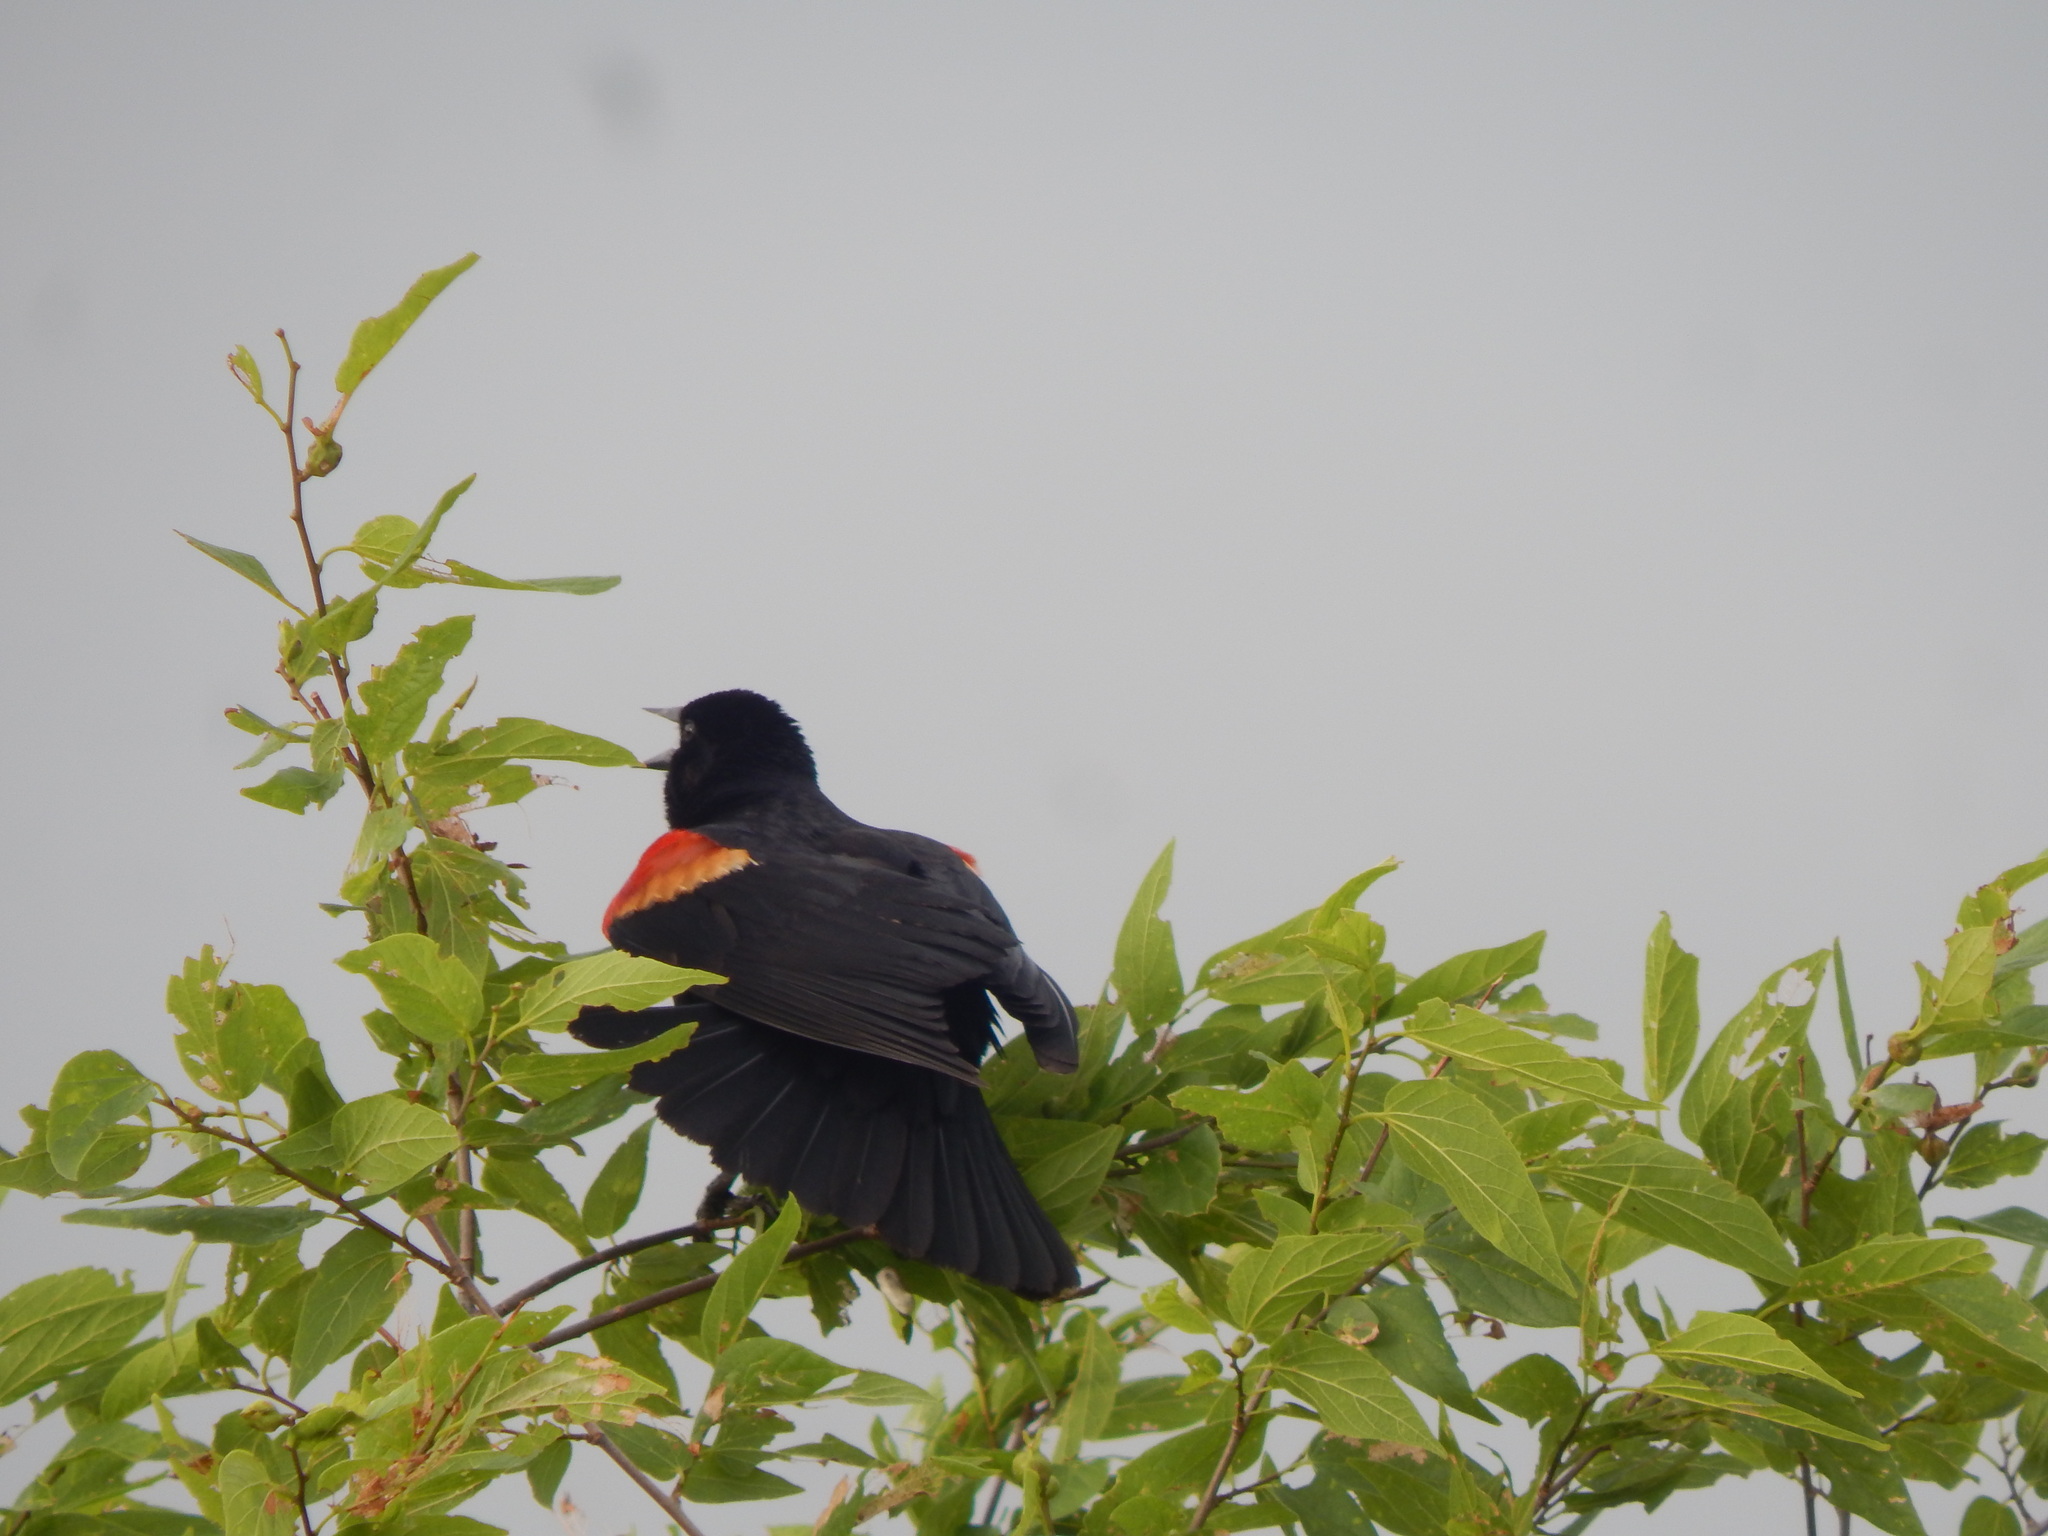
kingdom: Animalia
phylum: Chordata
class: Aves
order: Passeriformes
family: Icteridae
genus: Agelaius
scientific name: Agelaius phoeniceus
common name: Red-winged blackbird
